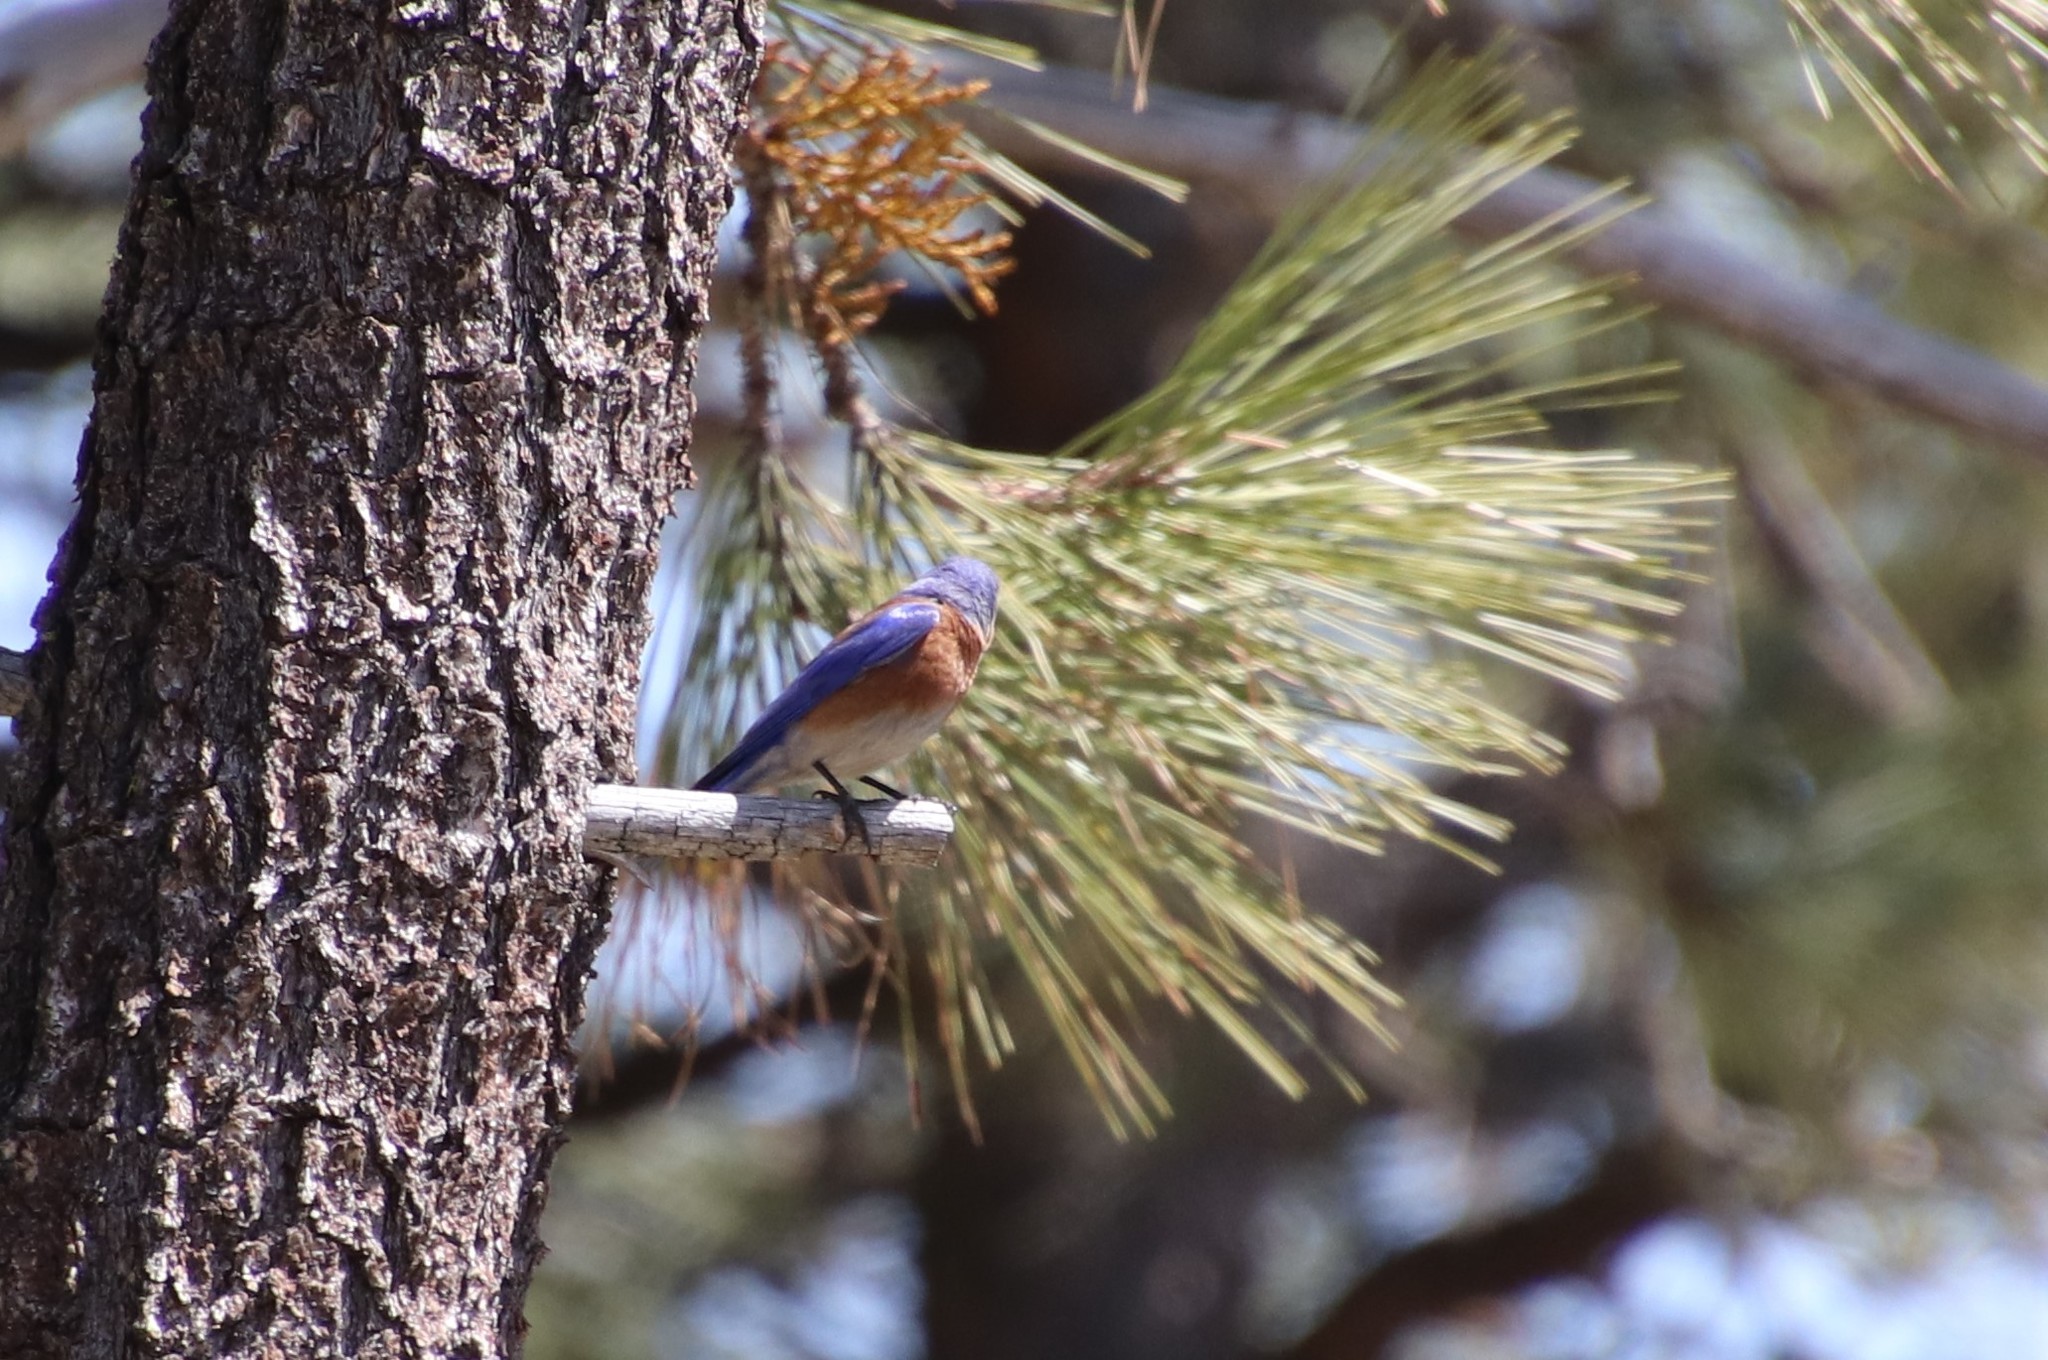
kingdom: Animalia
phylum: Chordata
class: Aves
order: Passeriformes
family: Turdidae
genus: Sialia
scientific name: Sialia mexicana
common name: Western bluebird
